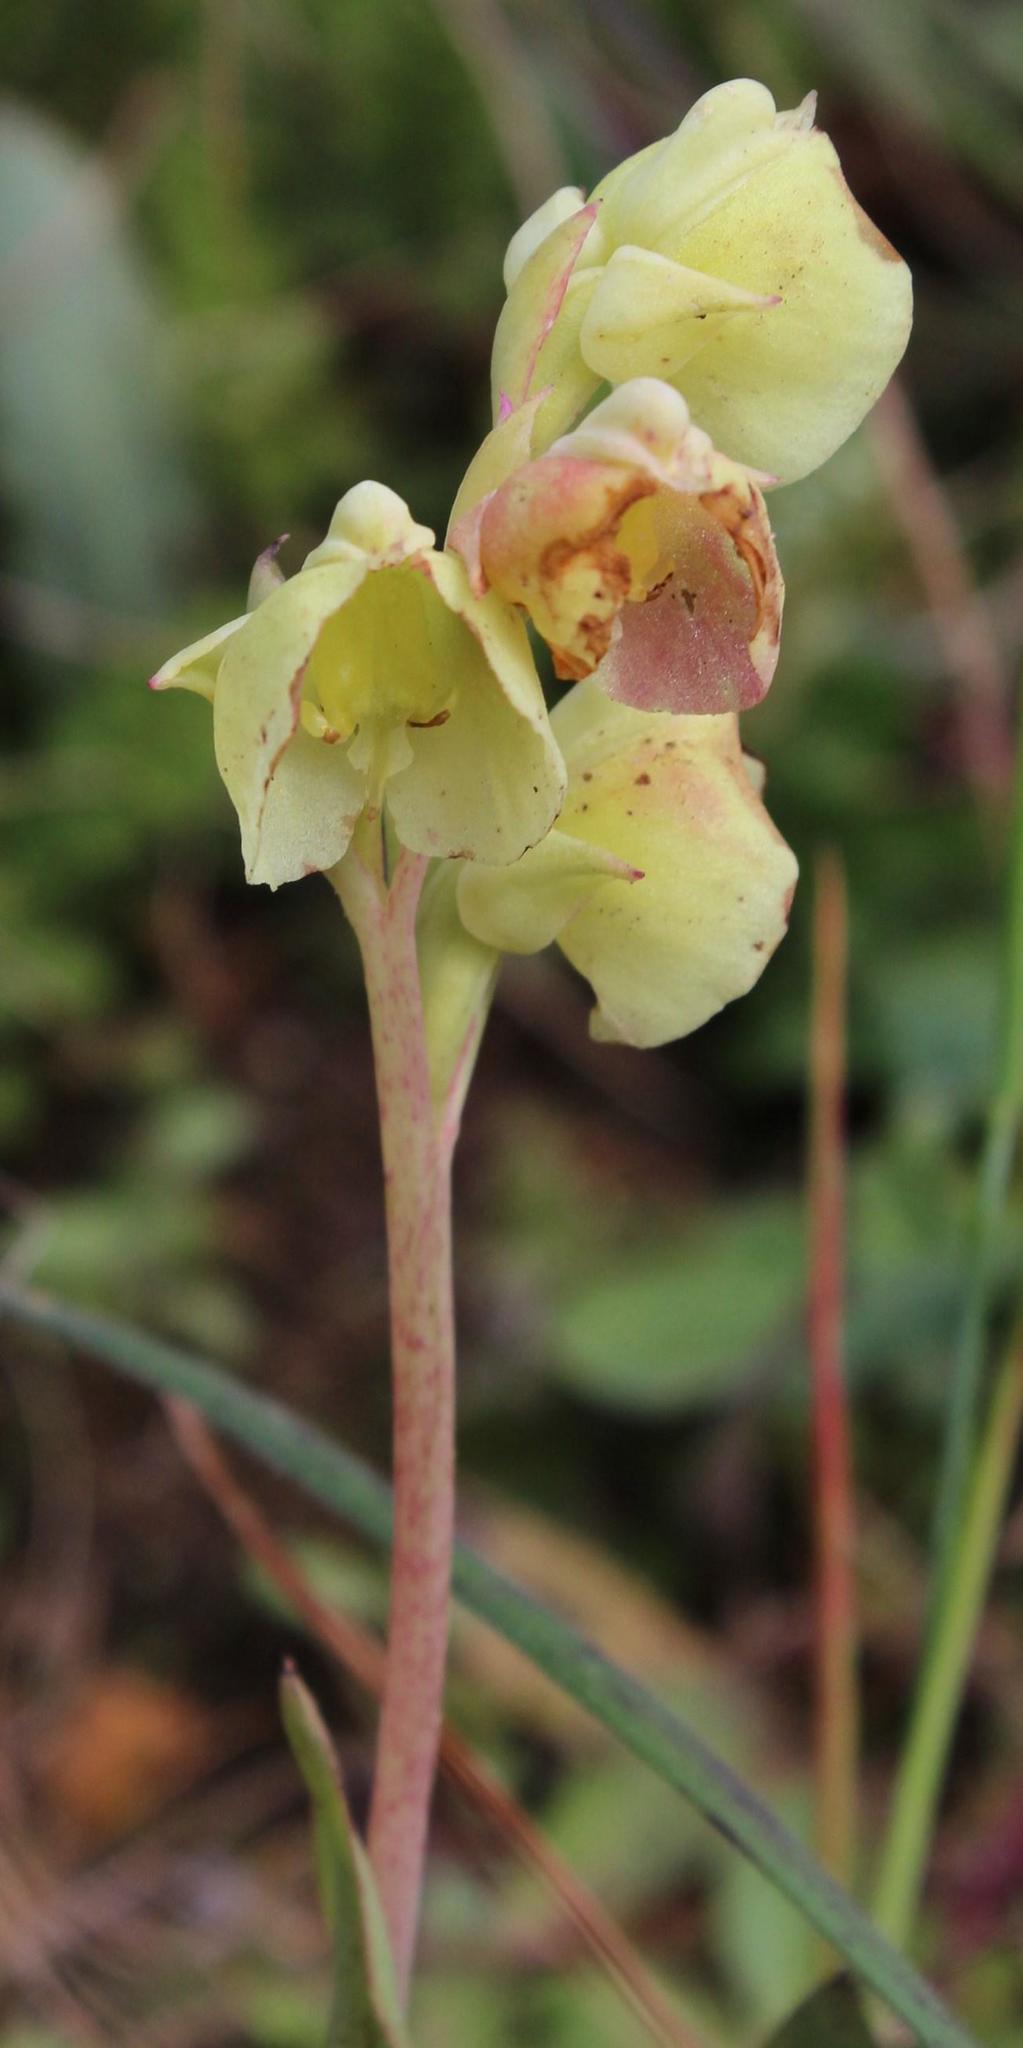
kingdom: Plantae
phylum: Tracheophyta
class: Liliopsida
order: Asparagales
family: Orchidaceae
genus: Pterygodium
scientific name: Pterygodium catholicum
